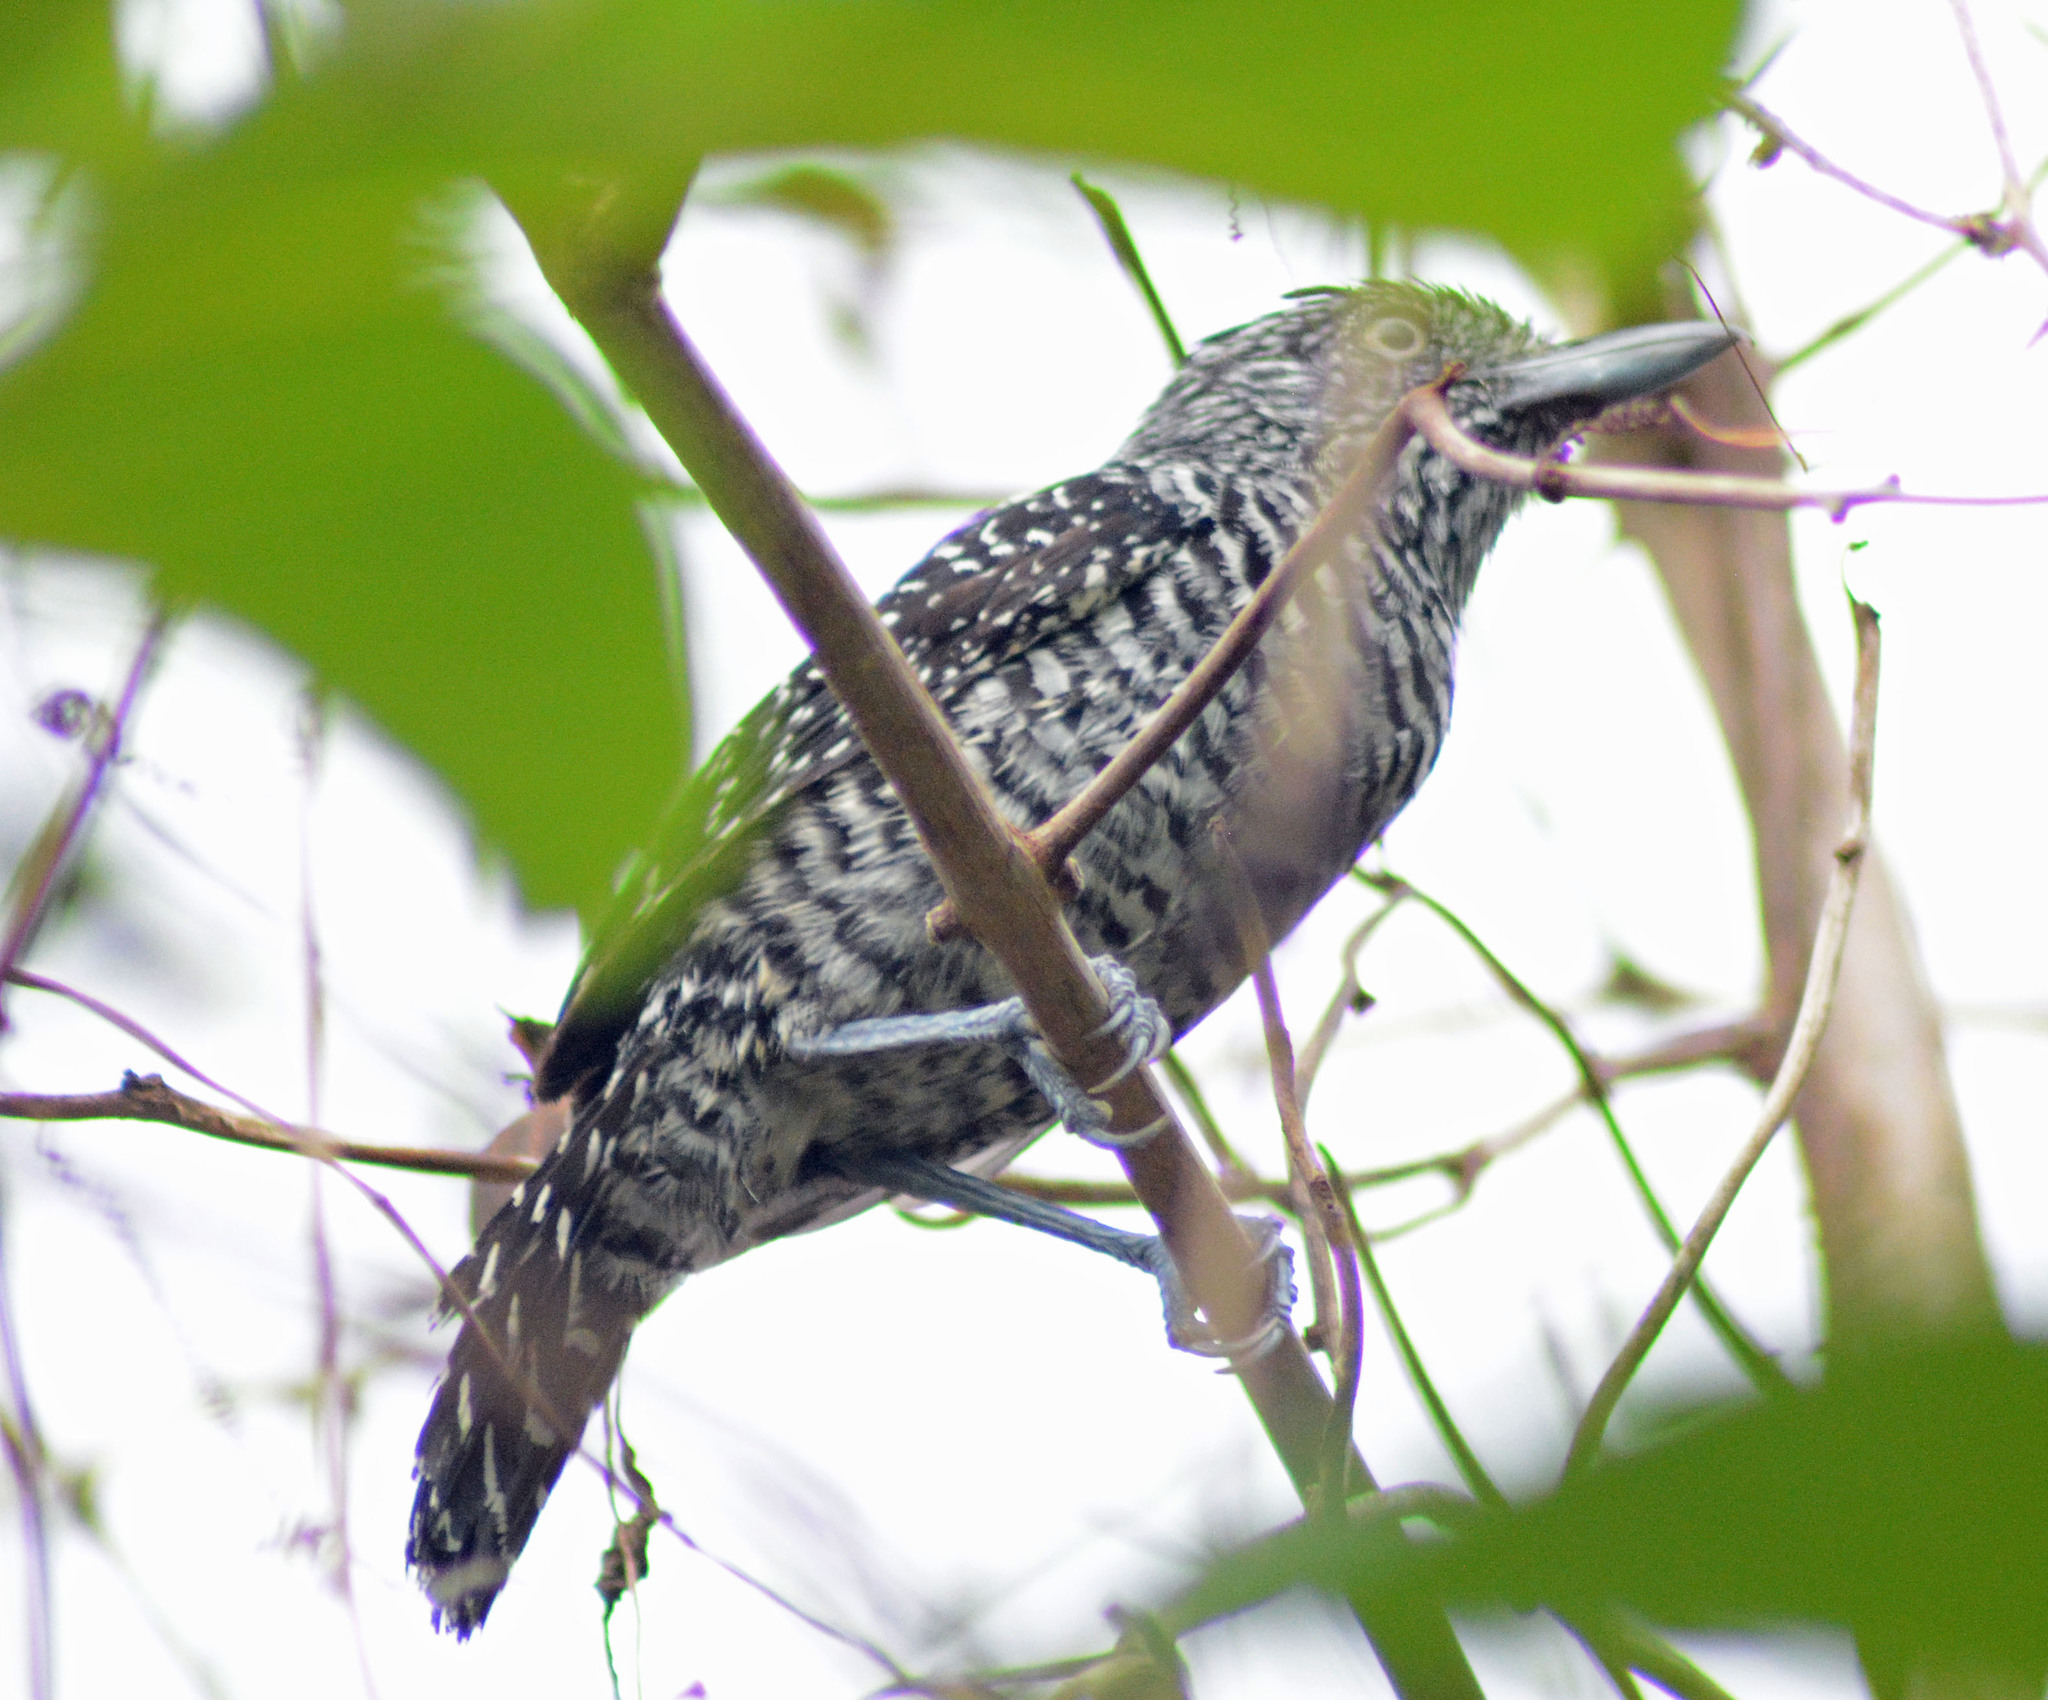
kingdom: Animalia
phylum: Chordata
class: Aves
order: Passeriformes
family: Thamnophilidae
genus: Thamnophilus
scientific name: Thamnophilus doliatus
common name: Barred antshrike
